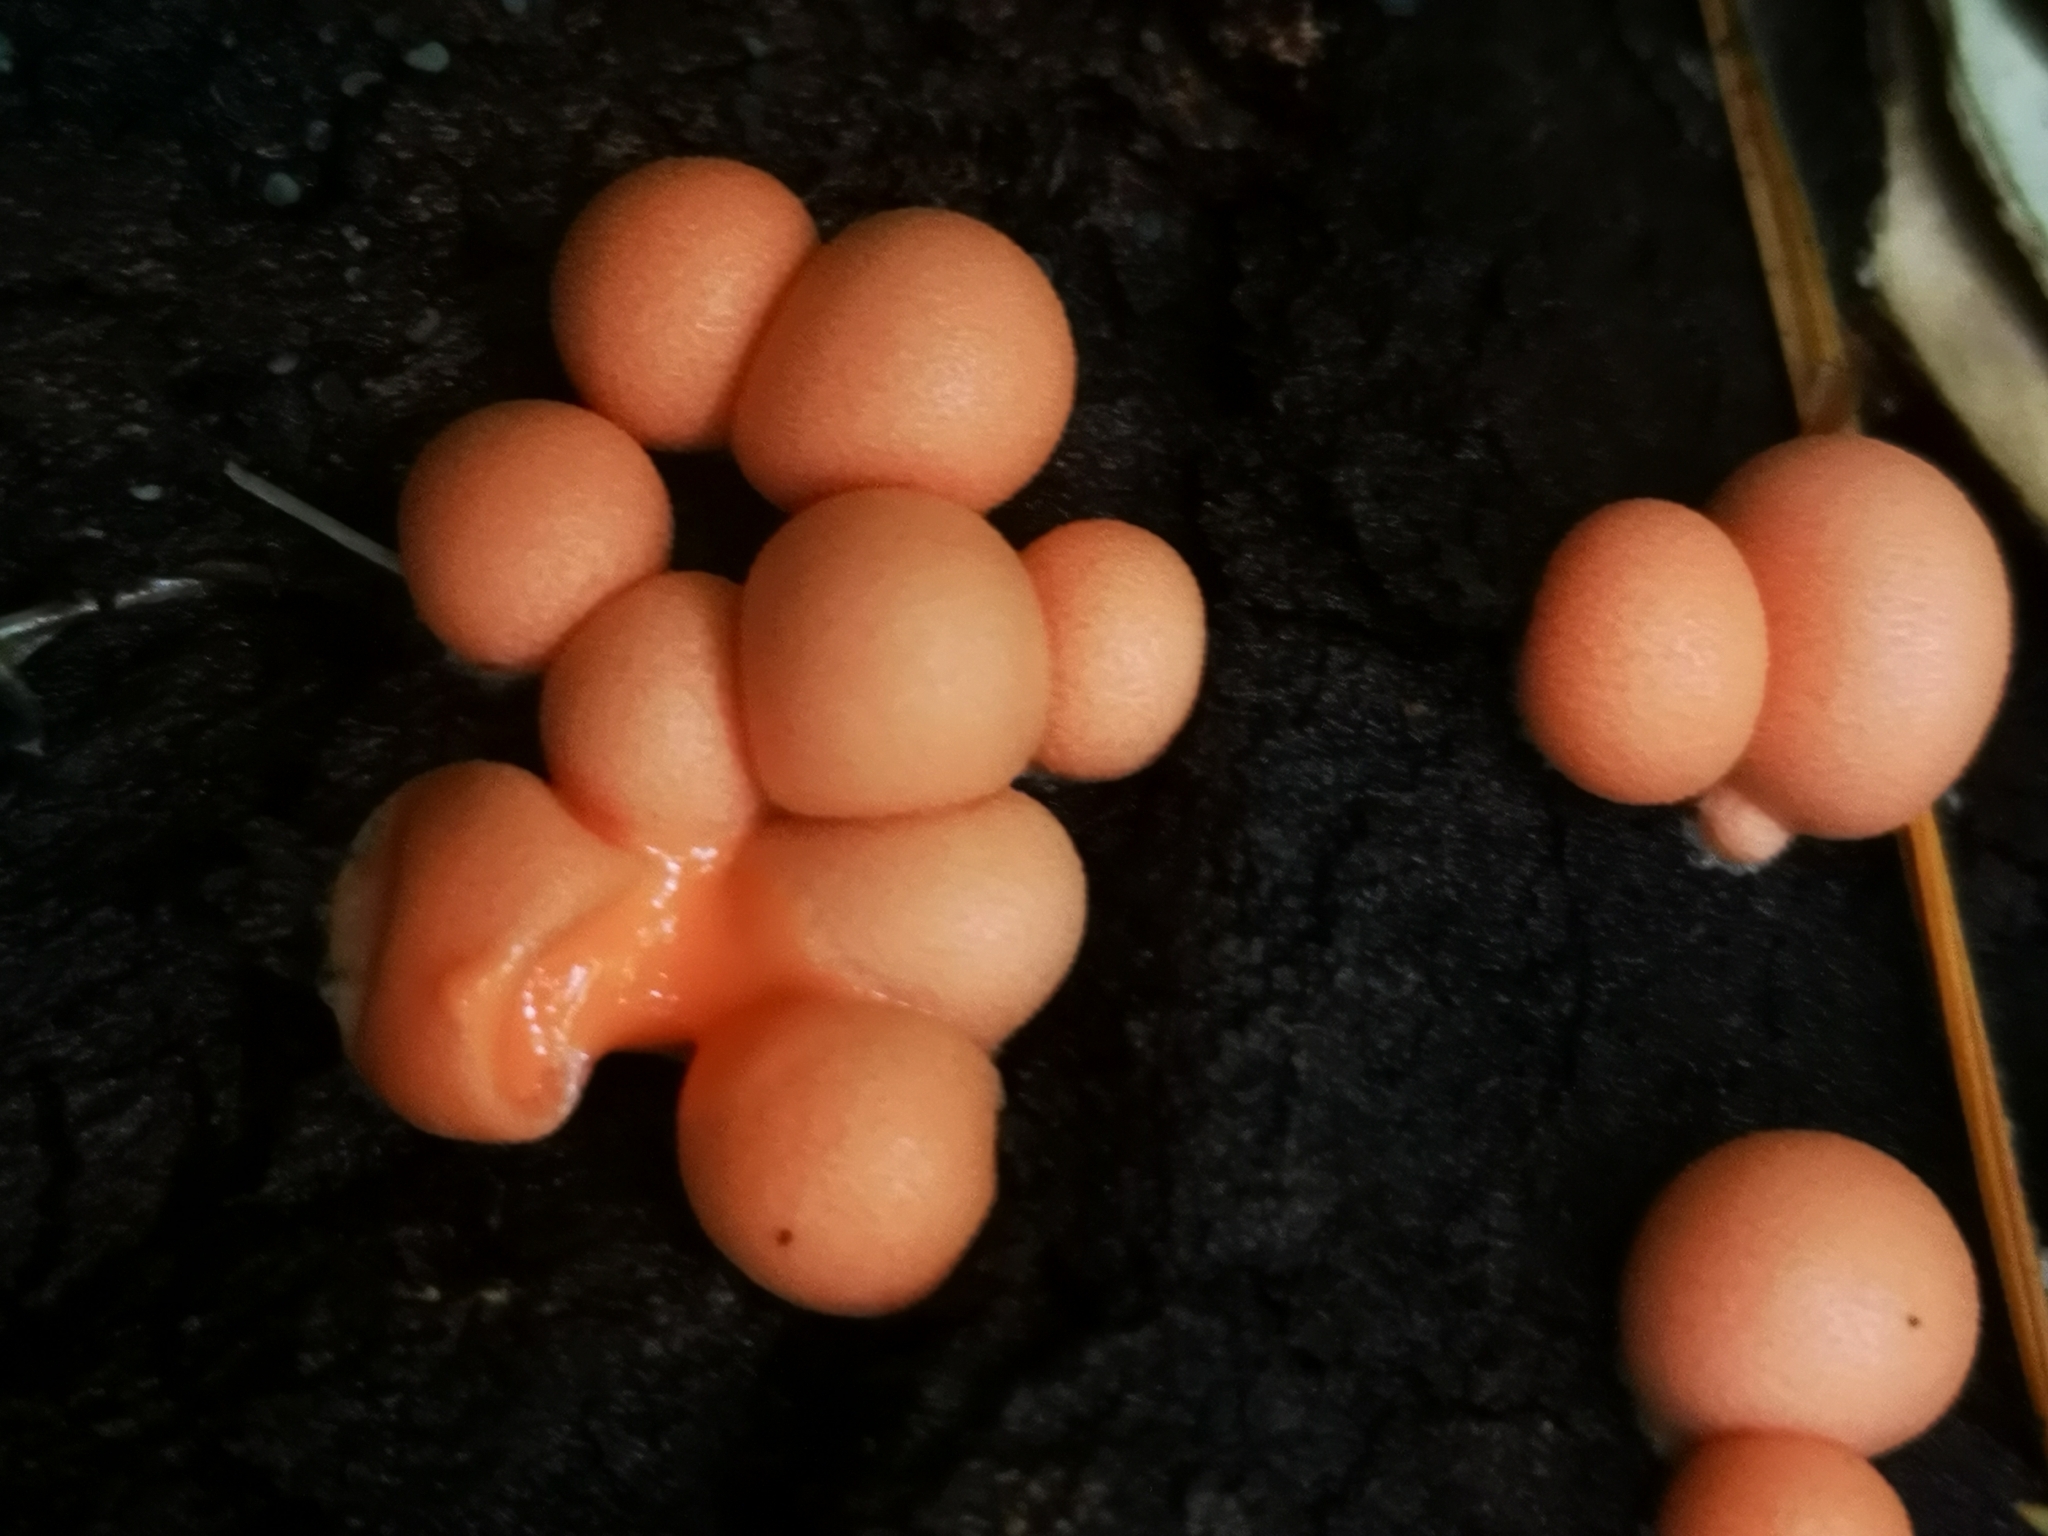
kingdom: Protozoa
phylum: Mycetozoa
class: Myxomycetes
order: Cribrariales
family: Tubiferaceae
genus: Lycogala
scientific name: Lycogala epidendrum
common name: Wolf's milk
